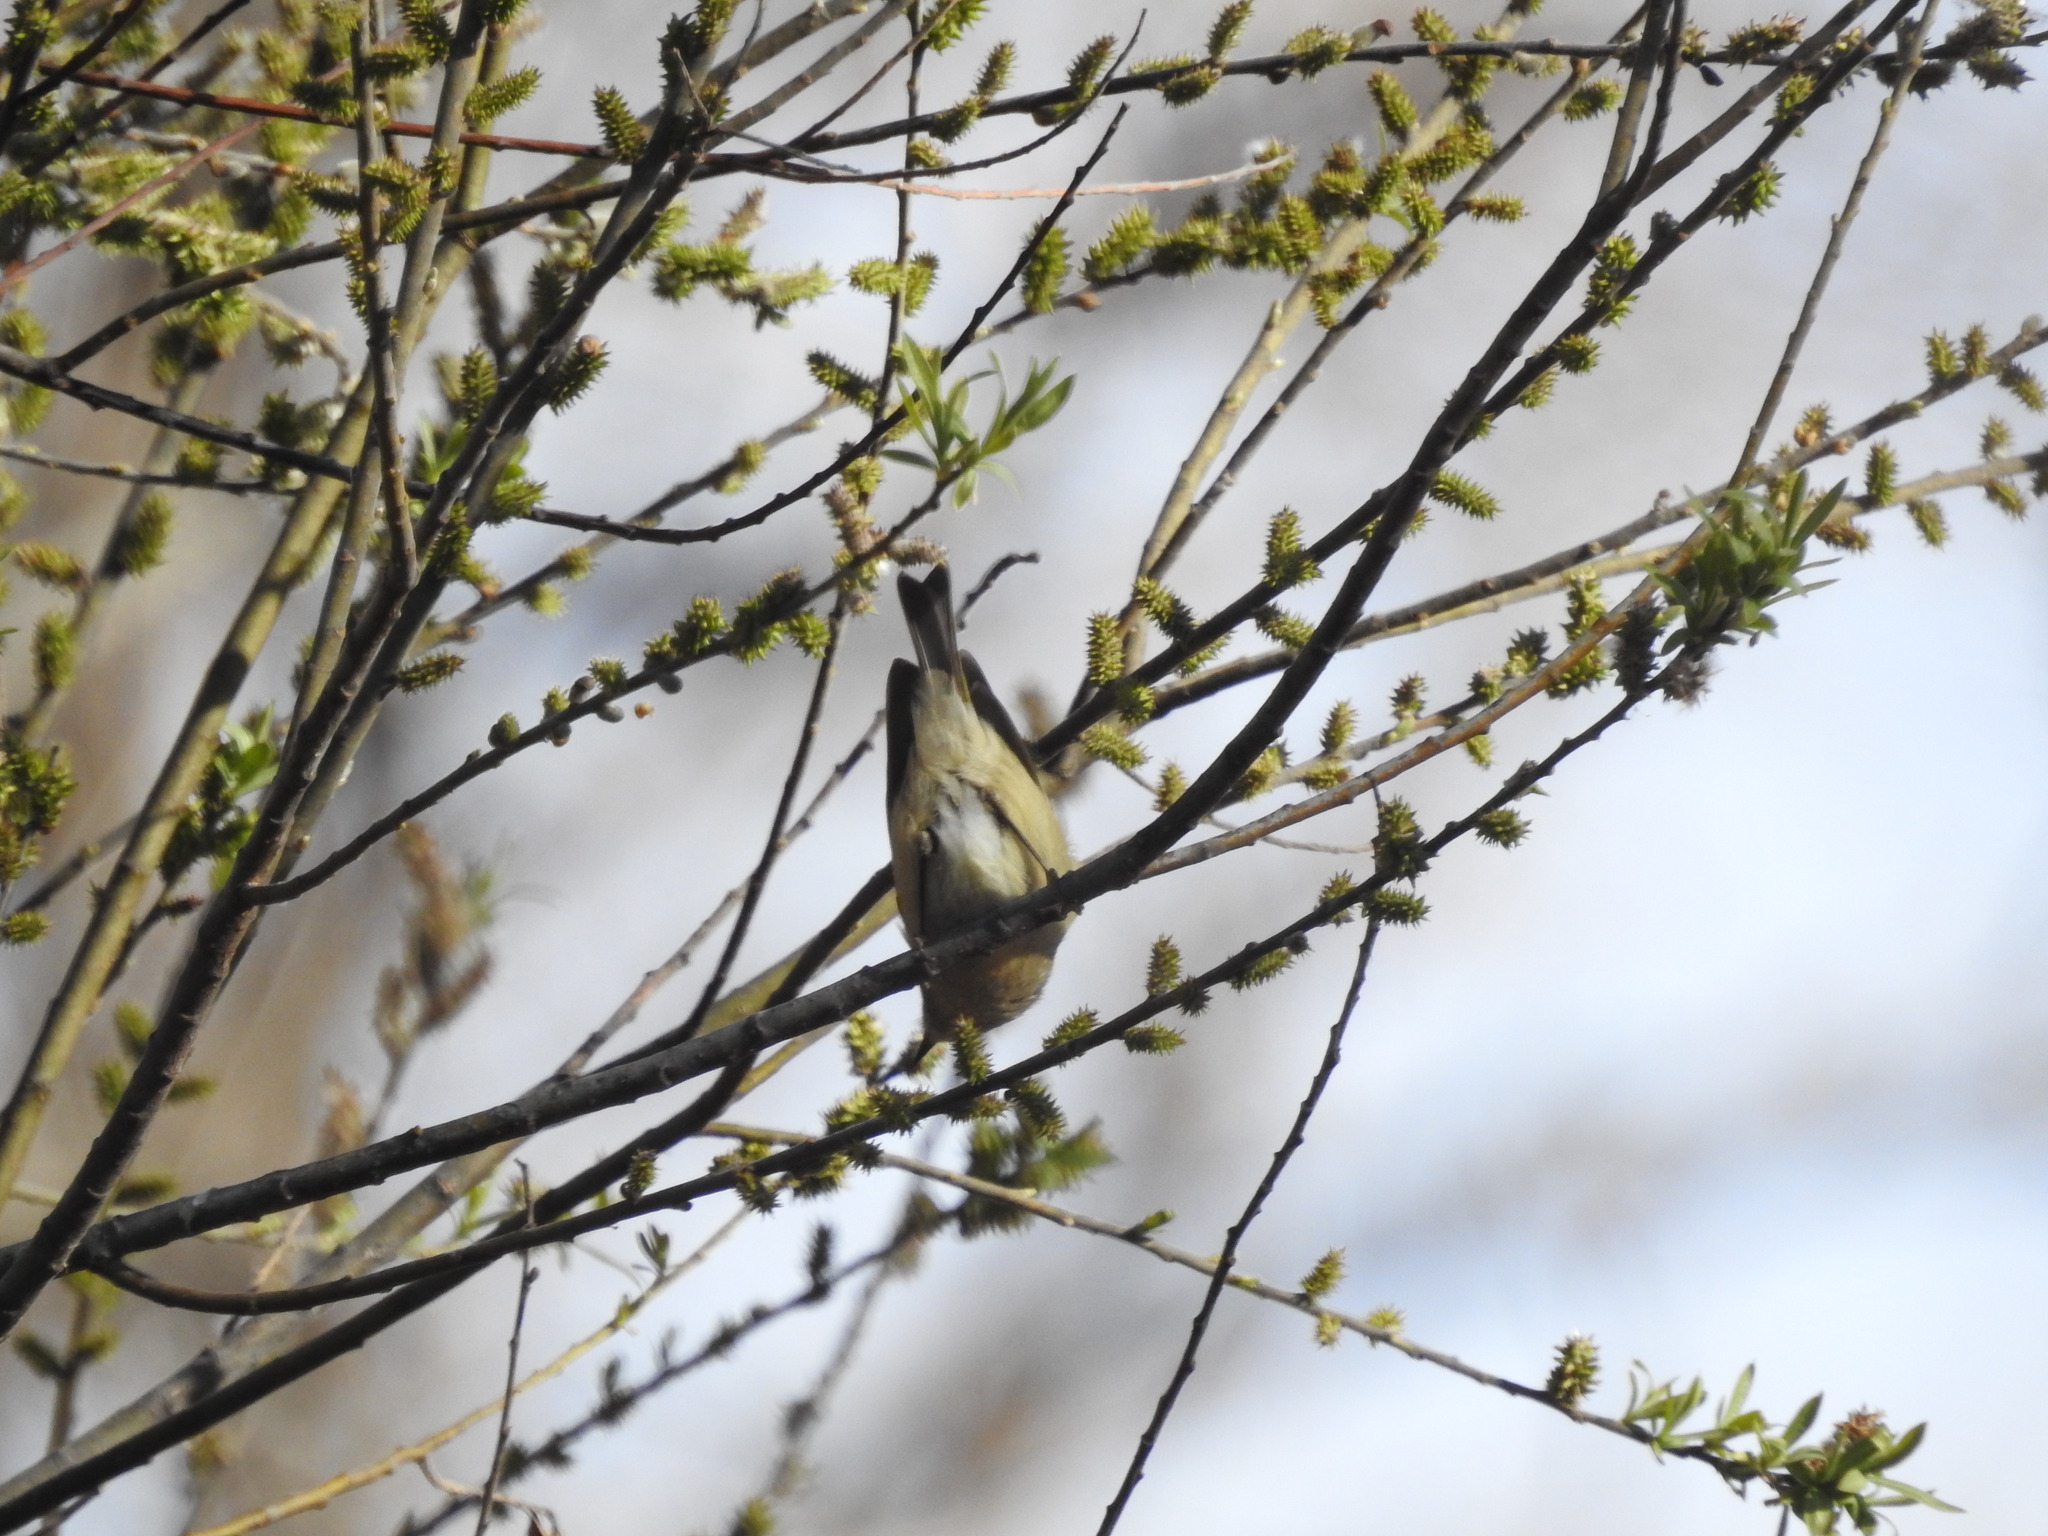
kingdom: Animalia
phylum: Chordata
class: Aves
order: Passeriformes
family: Regulidae
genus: Regulus
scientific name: Regulus calendula
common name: Ruby-crowned kinglet
